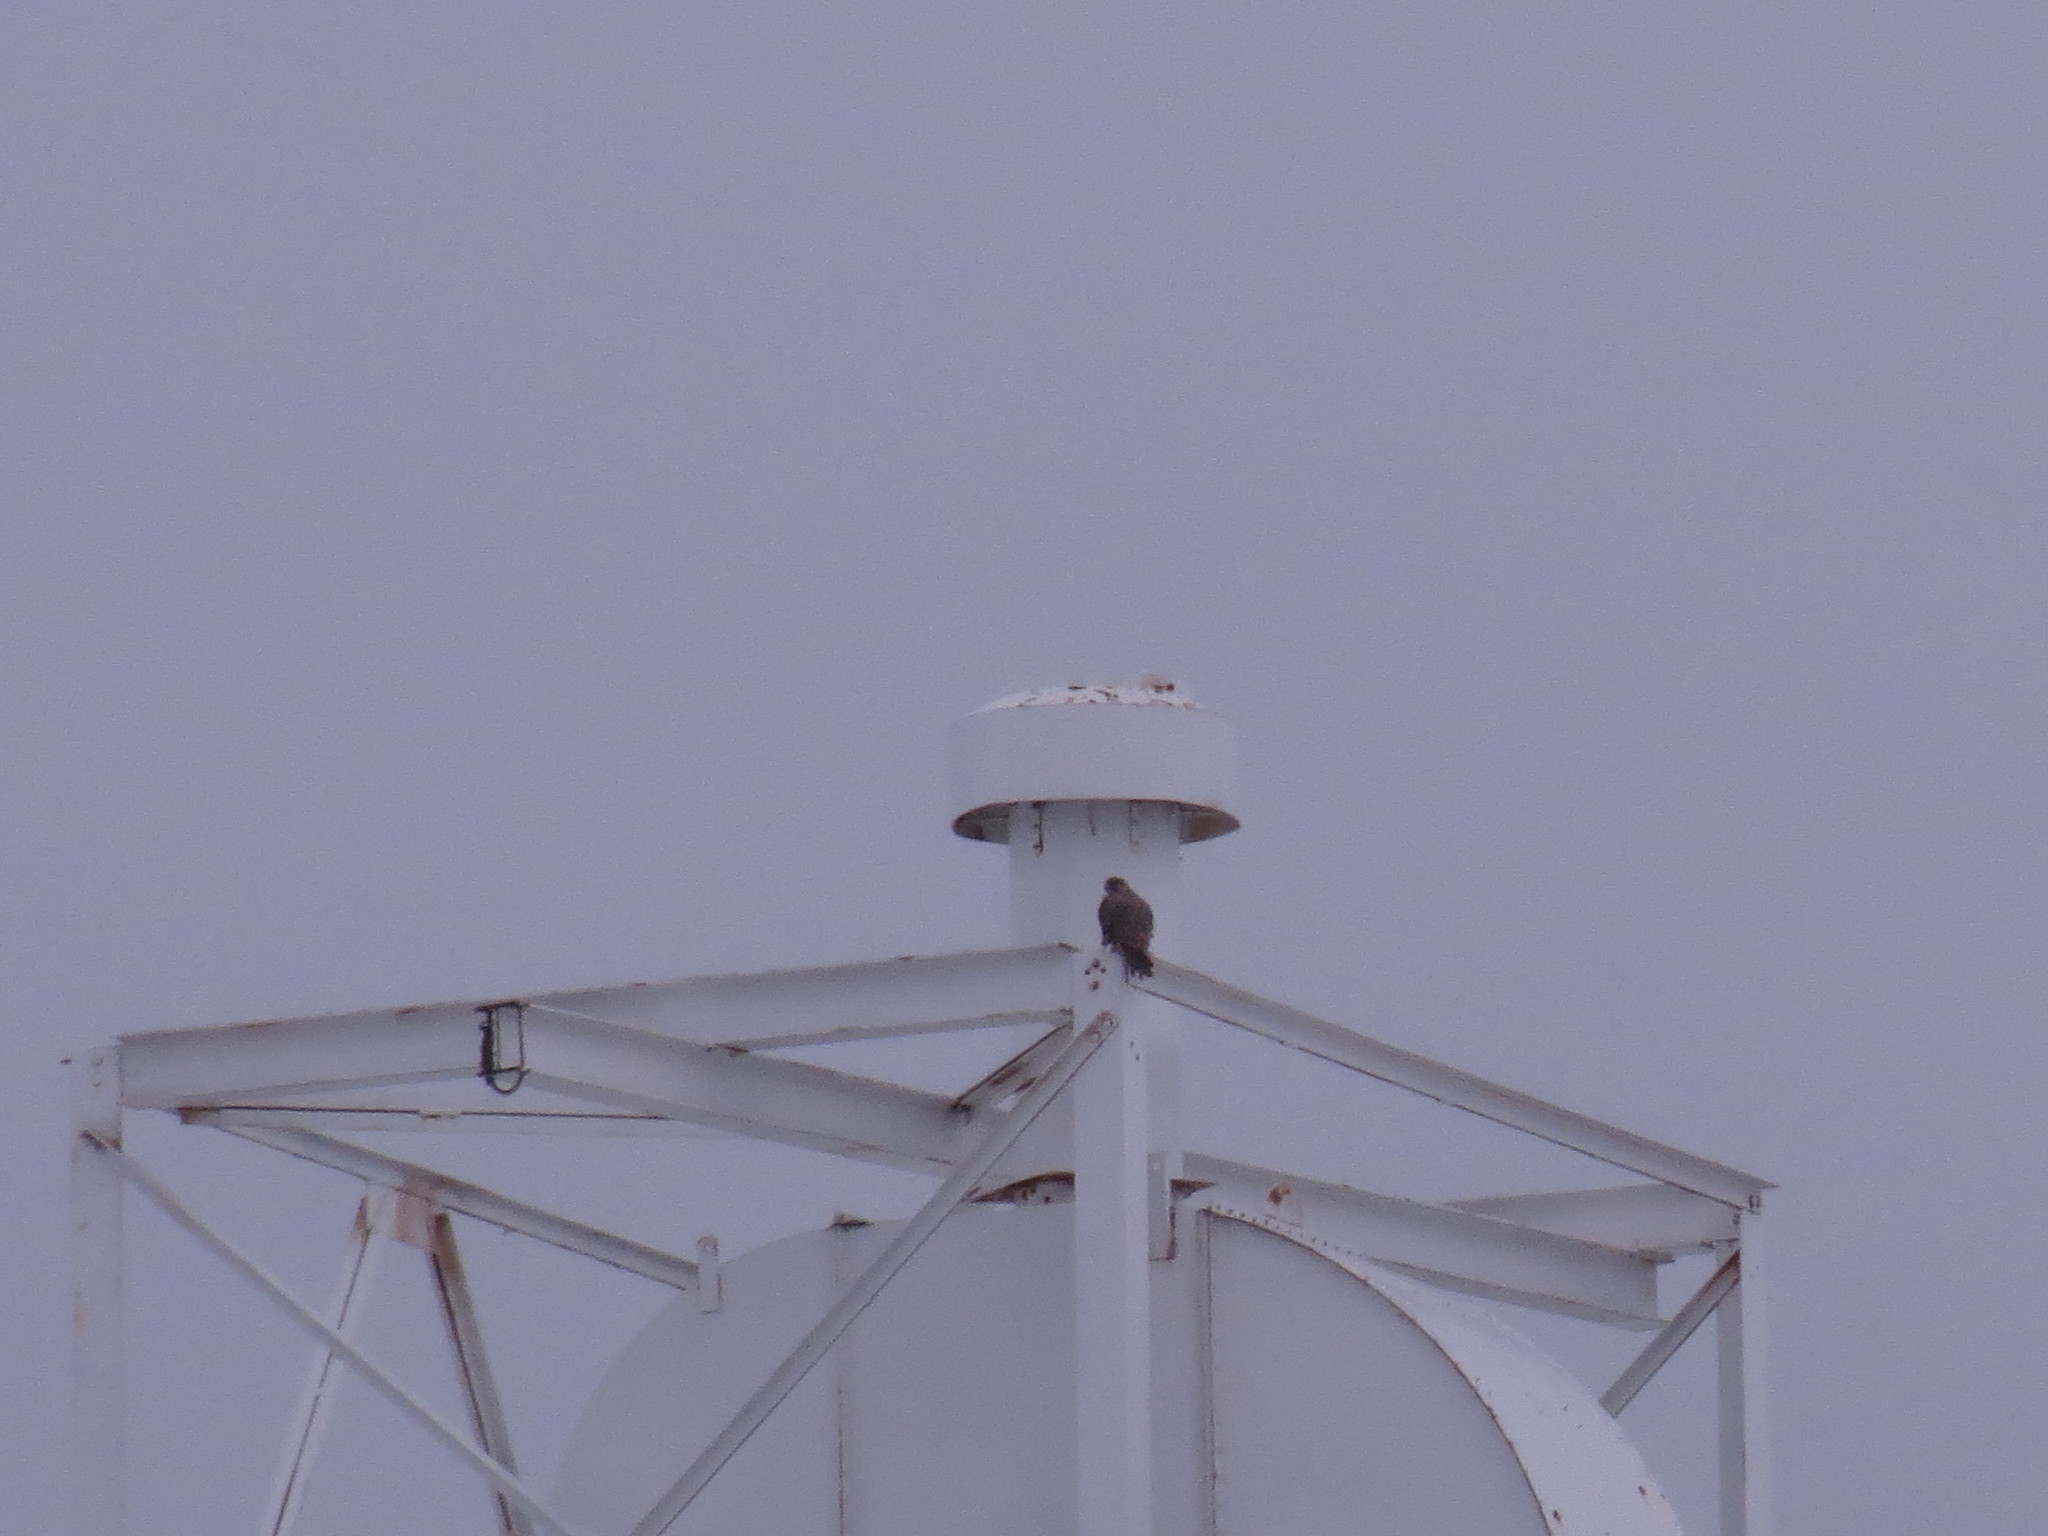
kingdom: Animalia
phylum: Chordata
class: Aves
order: Falconiformes
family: Falconidae
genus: Falco
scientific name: Falco rusticolus
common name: Gyrfalcon
